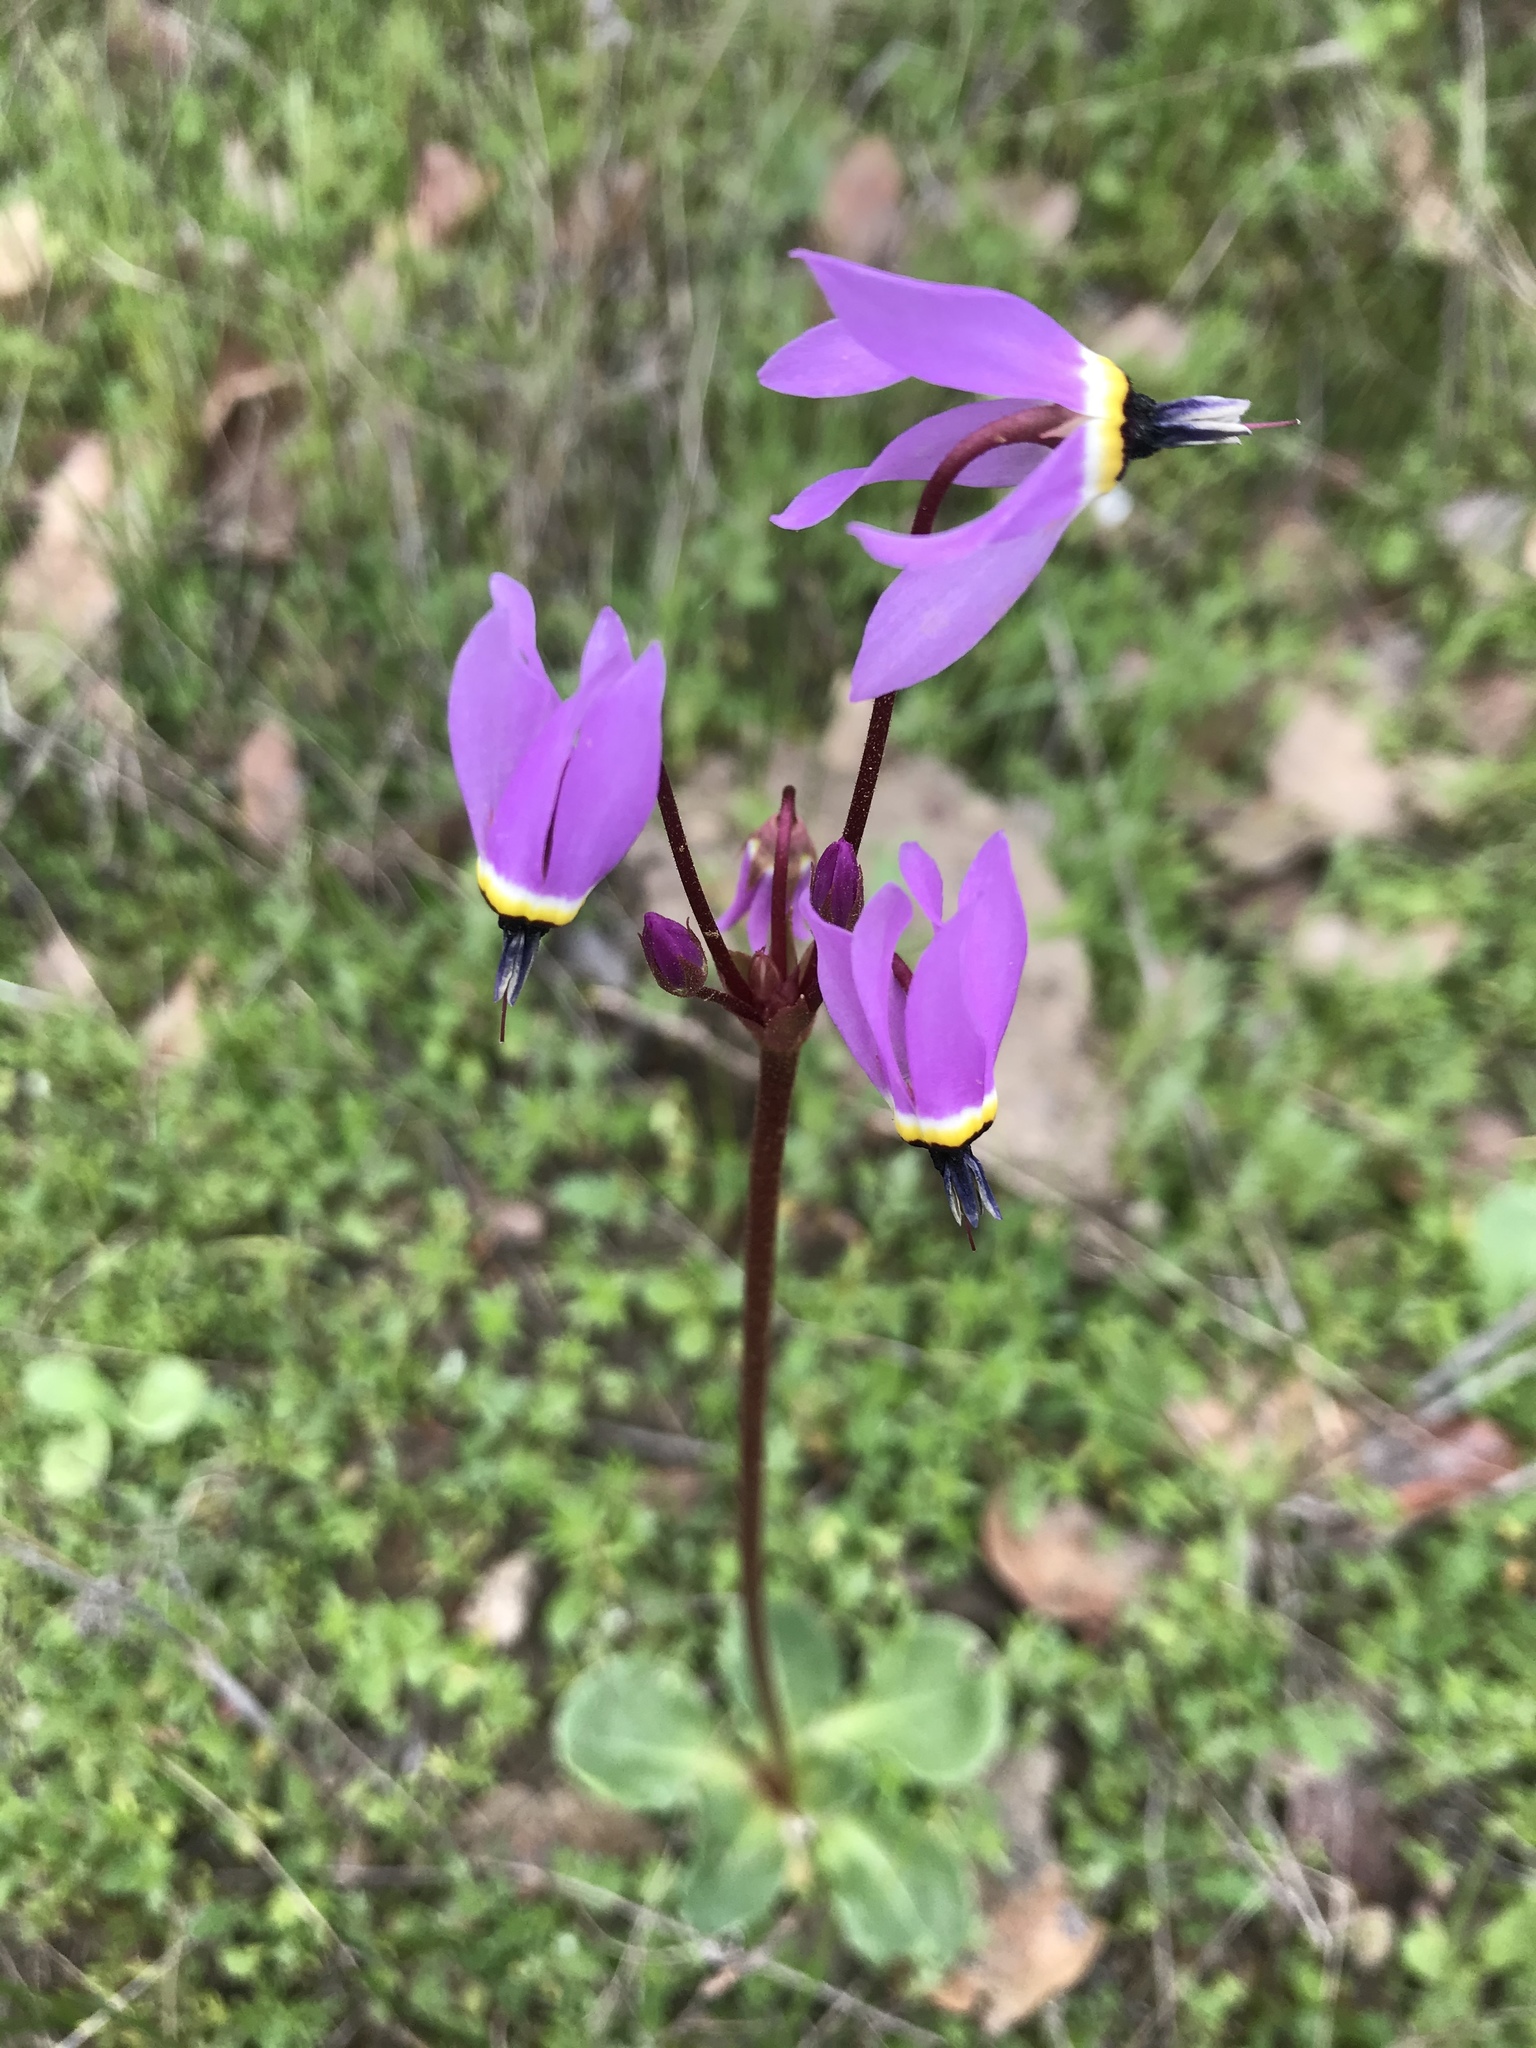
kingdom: Plantae
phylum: Tracheophyta
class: Magnoliopsida
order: Ericales
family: Primulaceae
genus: Dodecatheon
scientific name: Dodecatheon hendersonii
